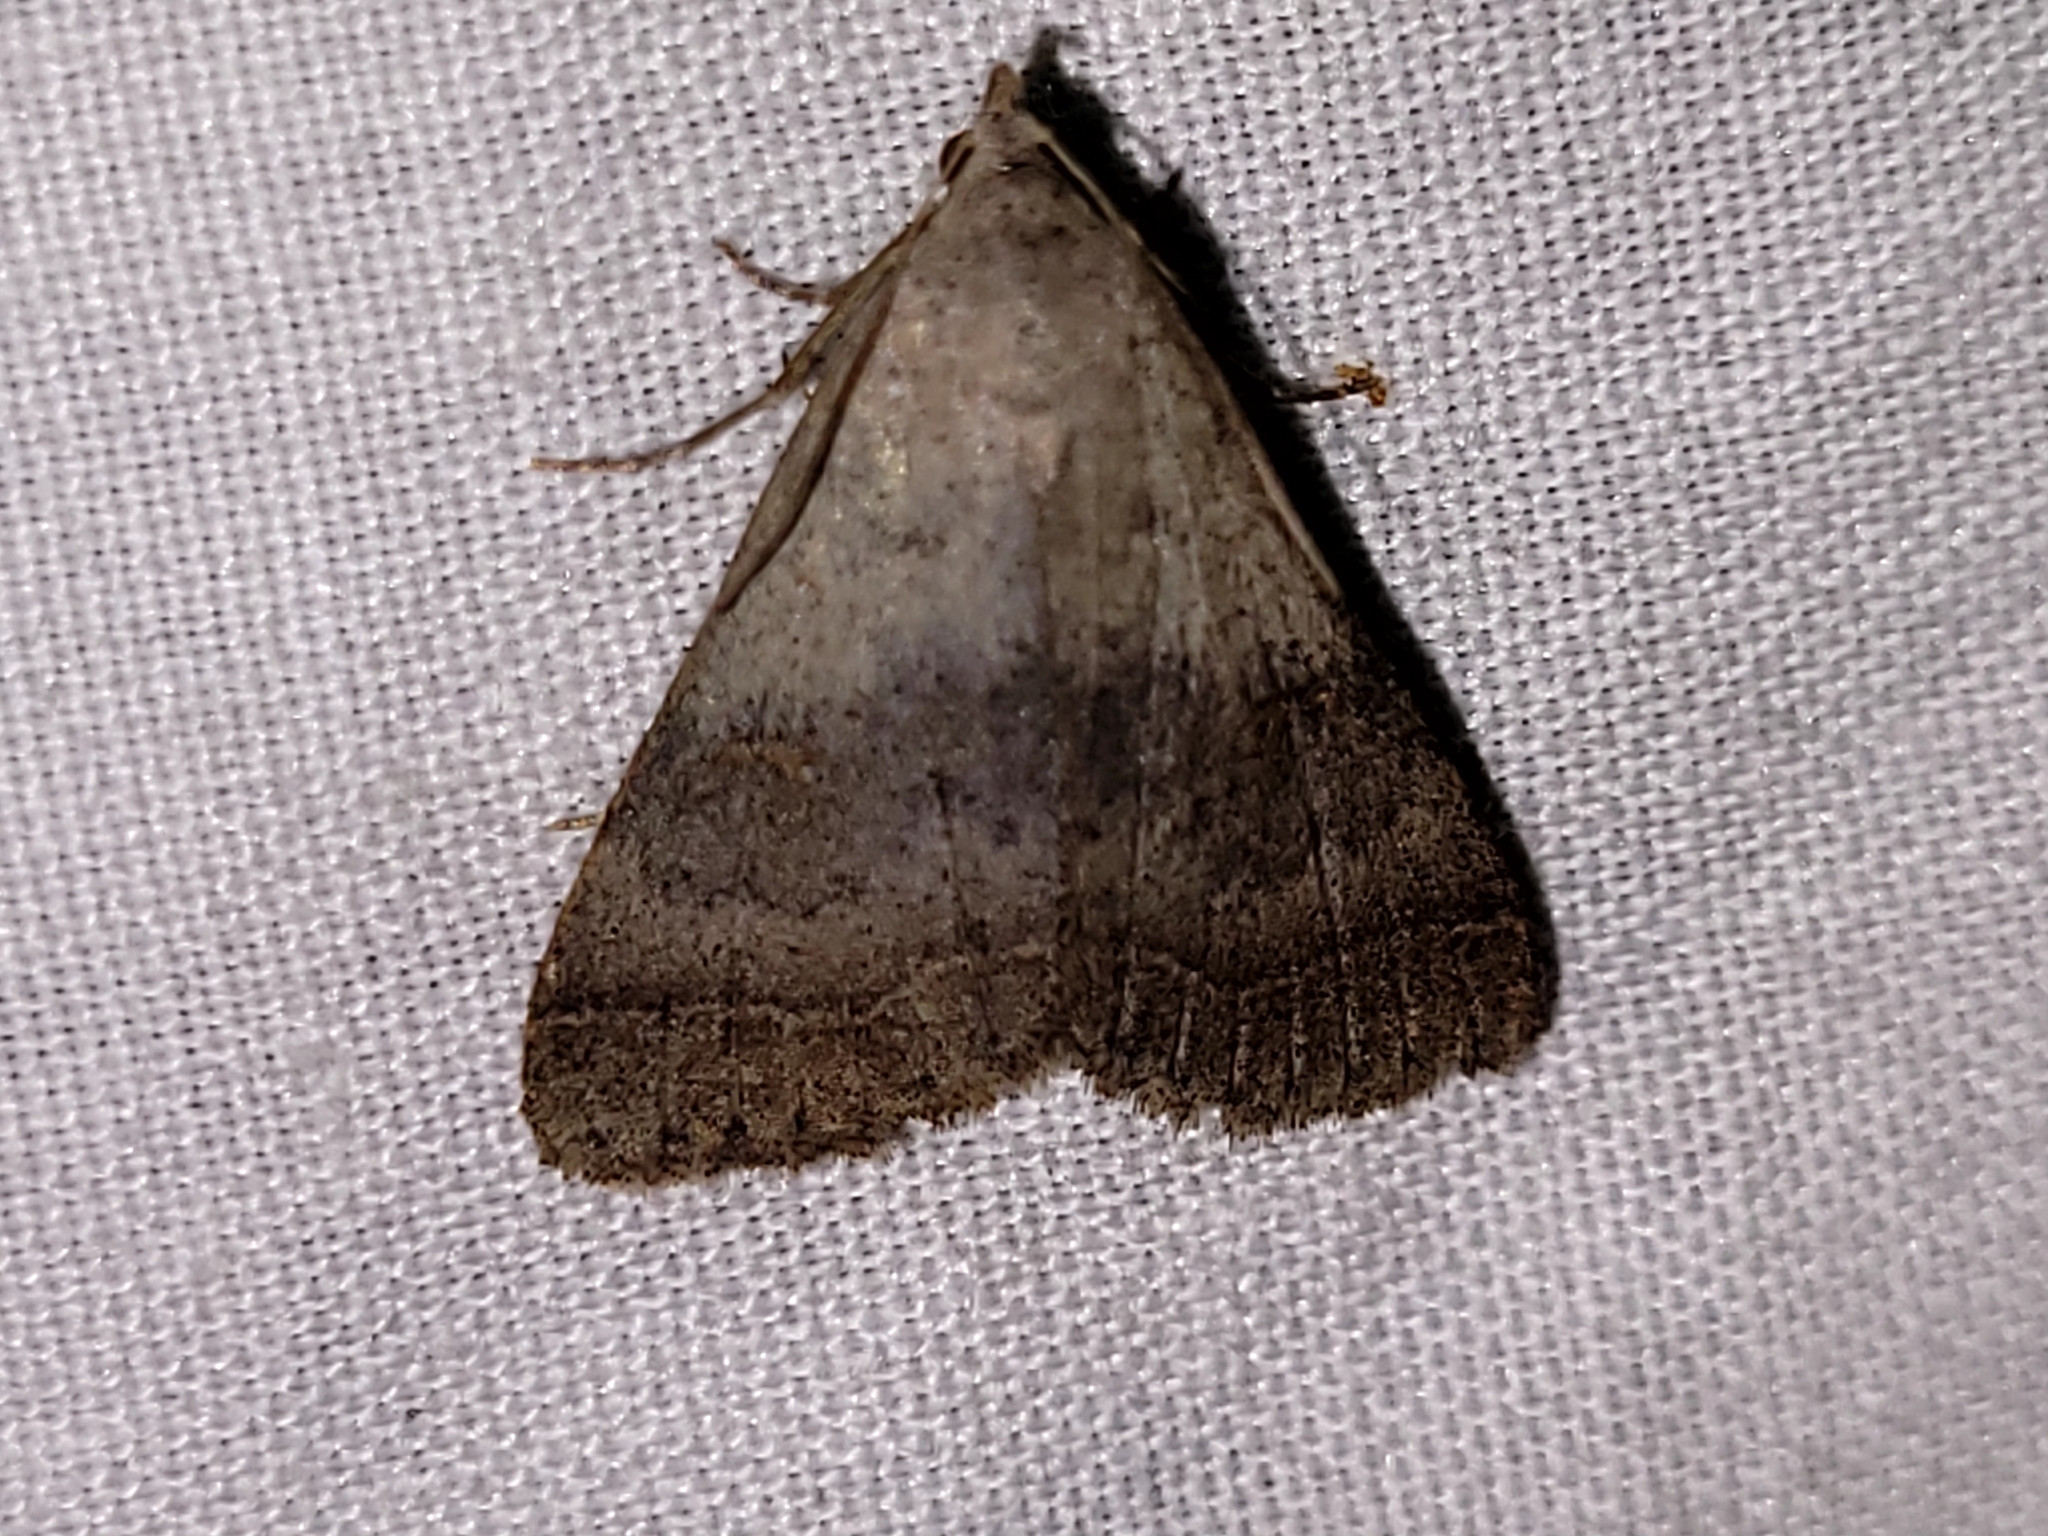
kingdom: Animalia
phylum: Arthropoda
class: Insecta
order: Lepidoptera
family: Erebidae
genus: Bleptina
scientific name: Bleptina caradrinalis
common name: Bent-winged owlet
